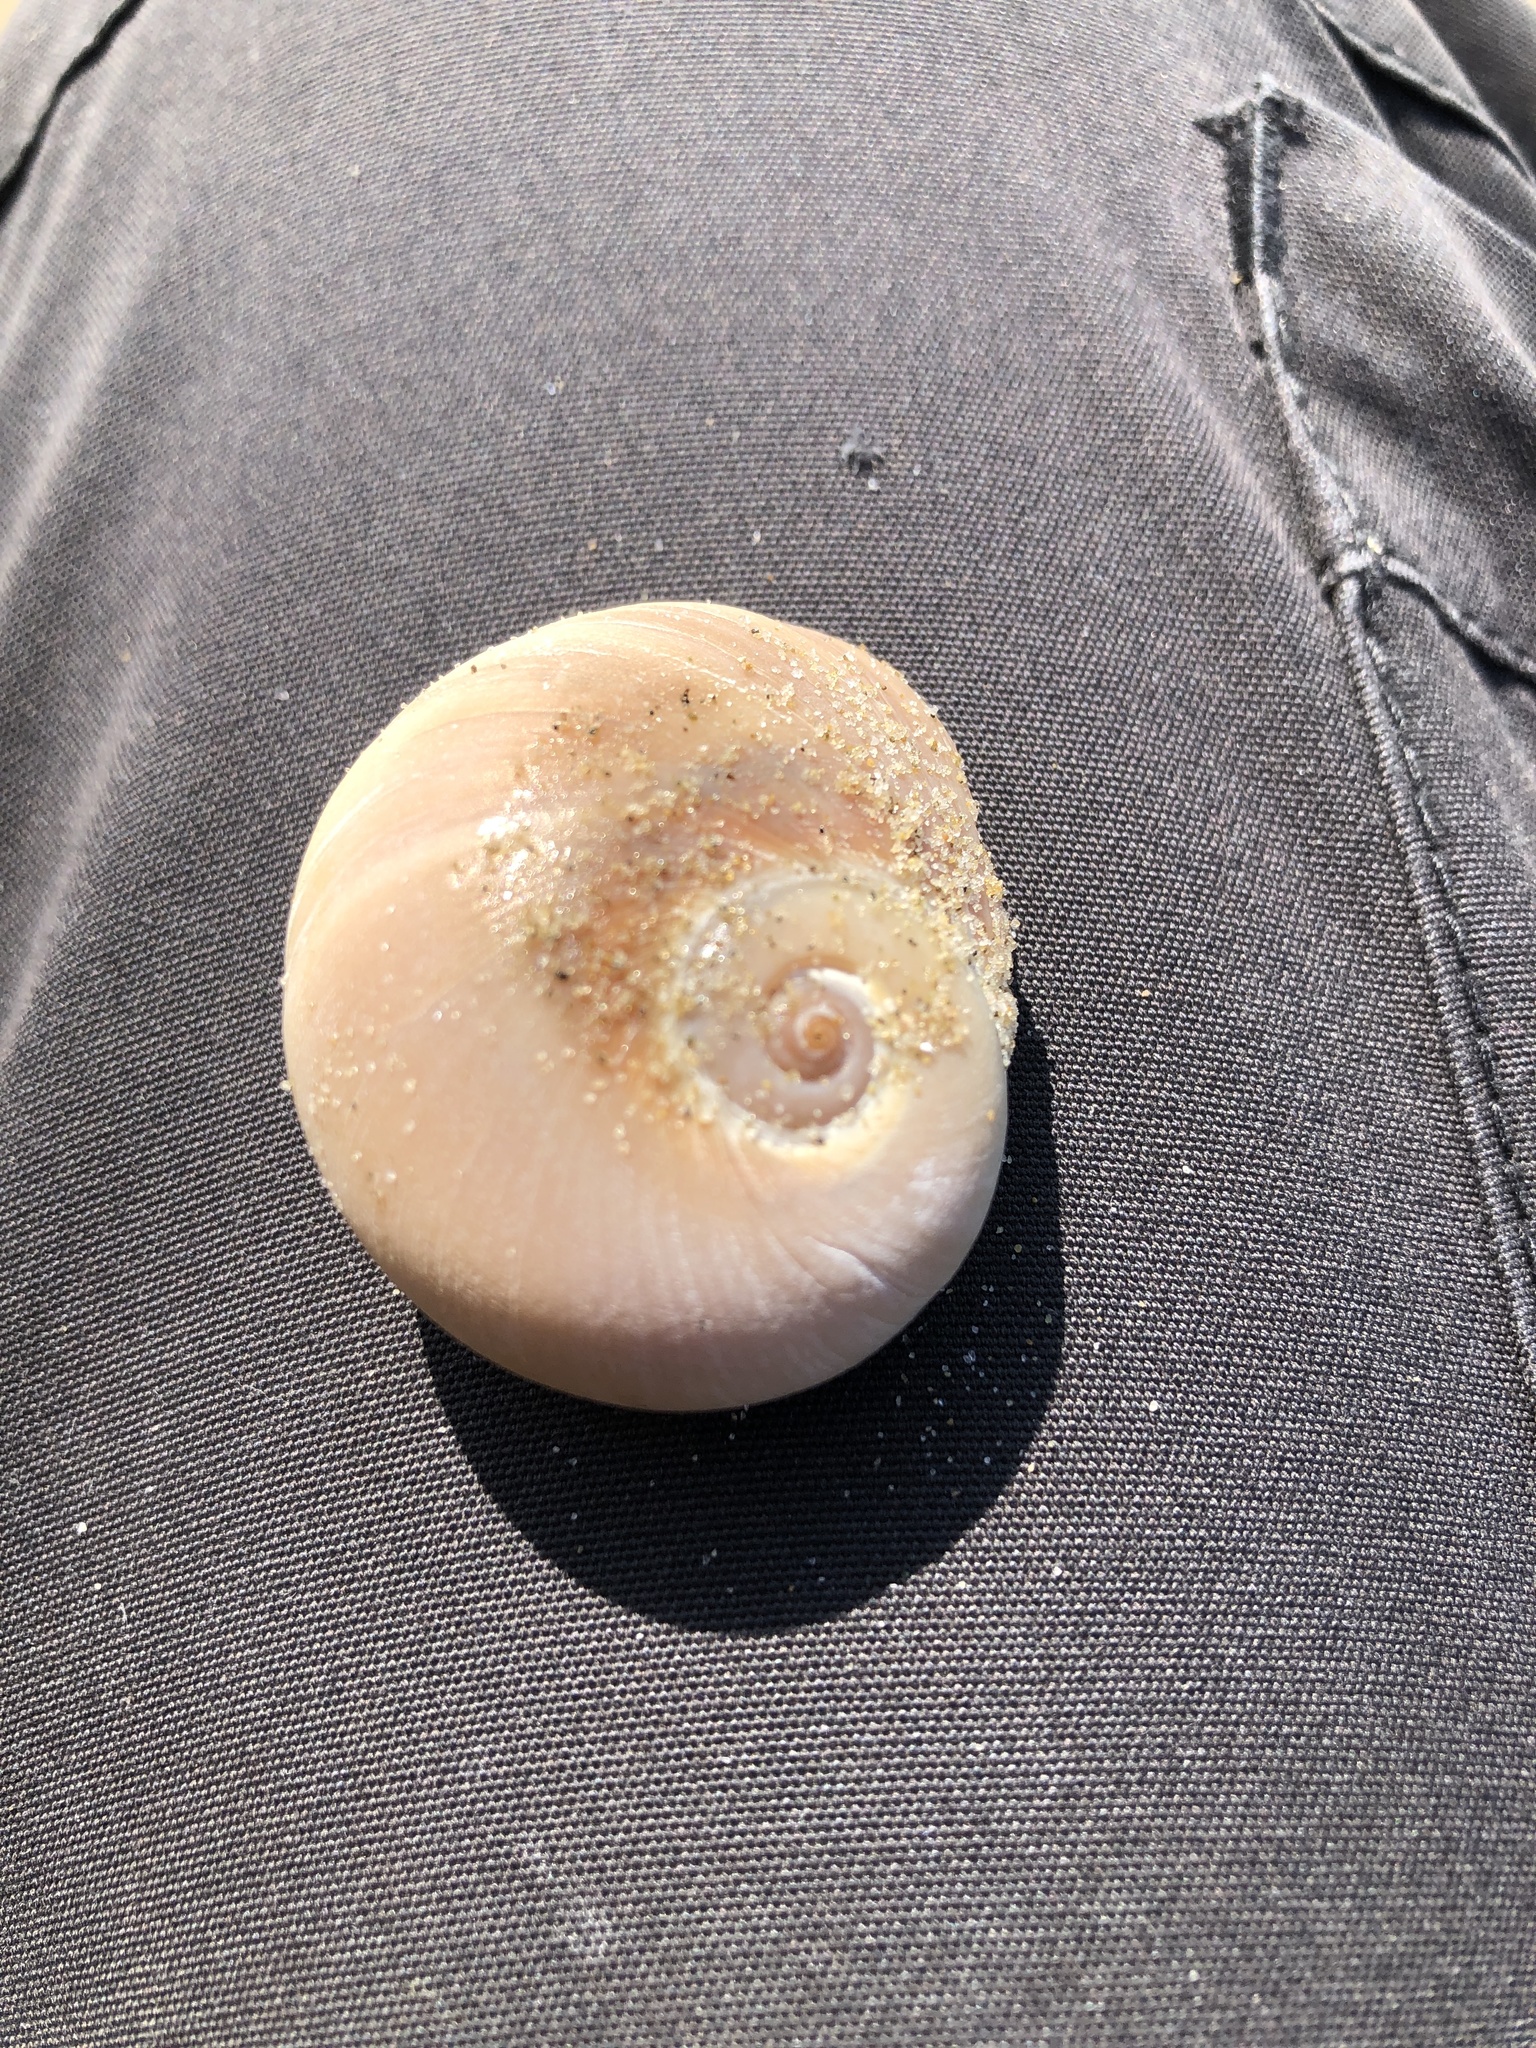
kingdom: Animalia
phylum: Mollusca
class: Gastropoda
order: Littorinimorpha
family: Naticidae
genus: Neverita
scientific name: Neverita didyma
